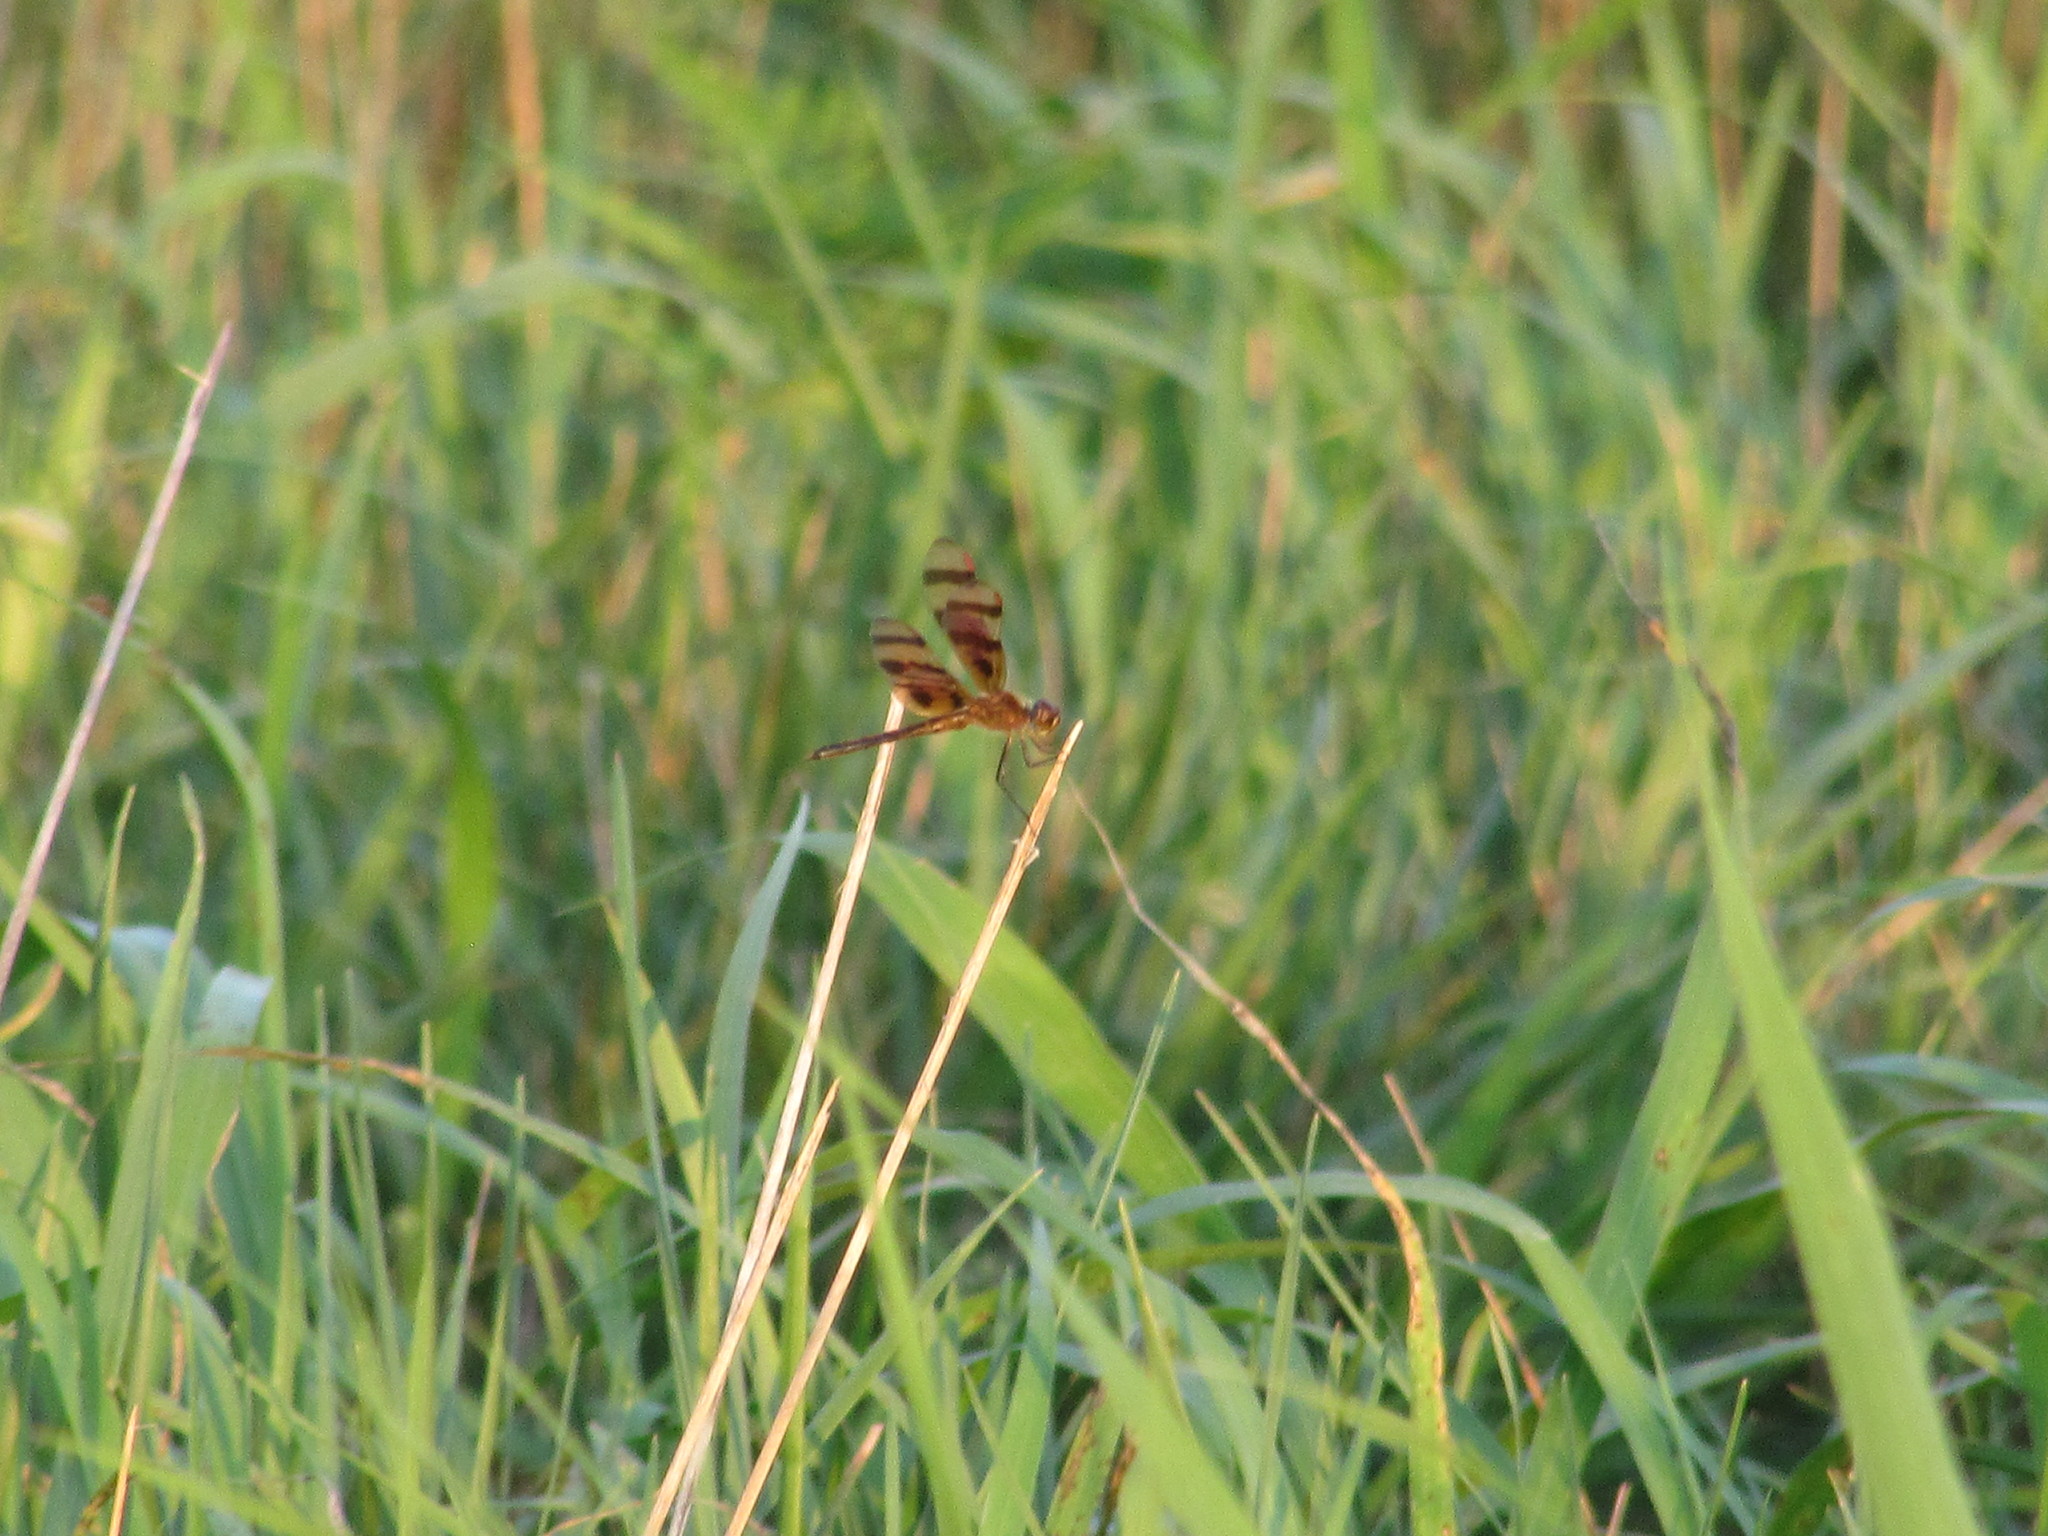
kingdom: Animalia
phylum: Arthropoda
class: Insecta
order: Odonata
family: Libellulidae
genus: Celithemis
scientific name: Celithemis eponina
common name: Halloween pennant
